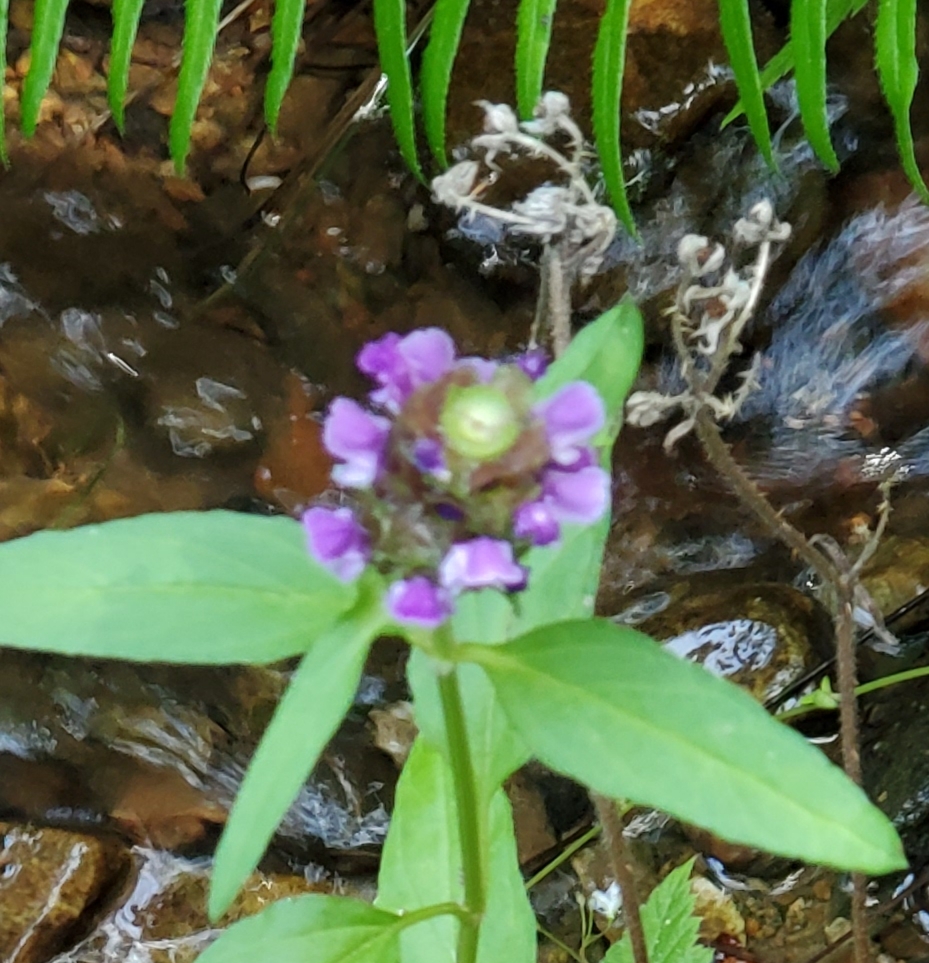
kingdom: Plantae
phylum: Tracheophyta
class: Magnoliopsida
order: Lamiales
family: Lamiaceae
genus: Prunella
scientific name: Prunella vulgaris
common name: Heal-all
